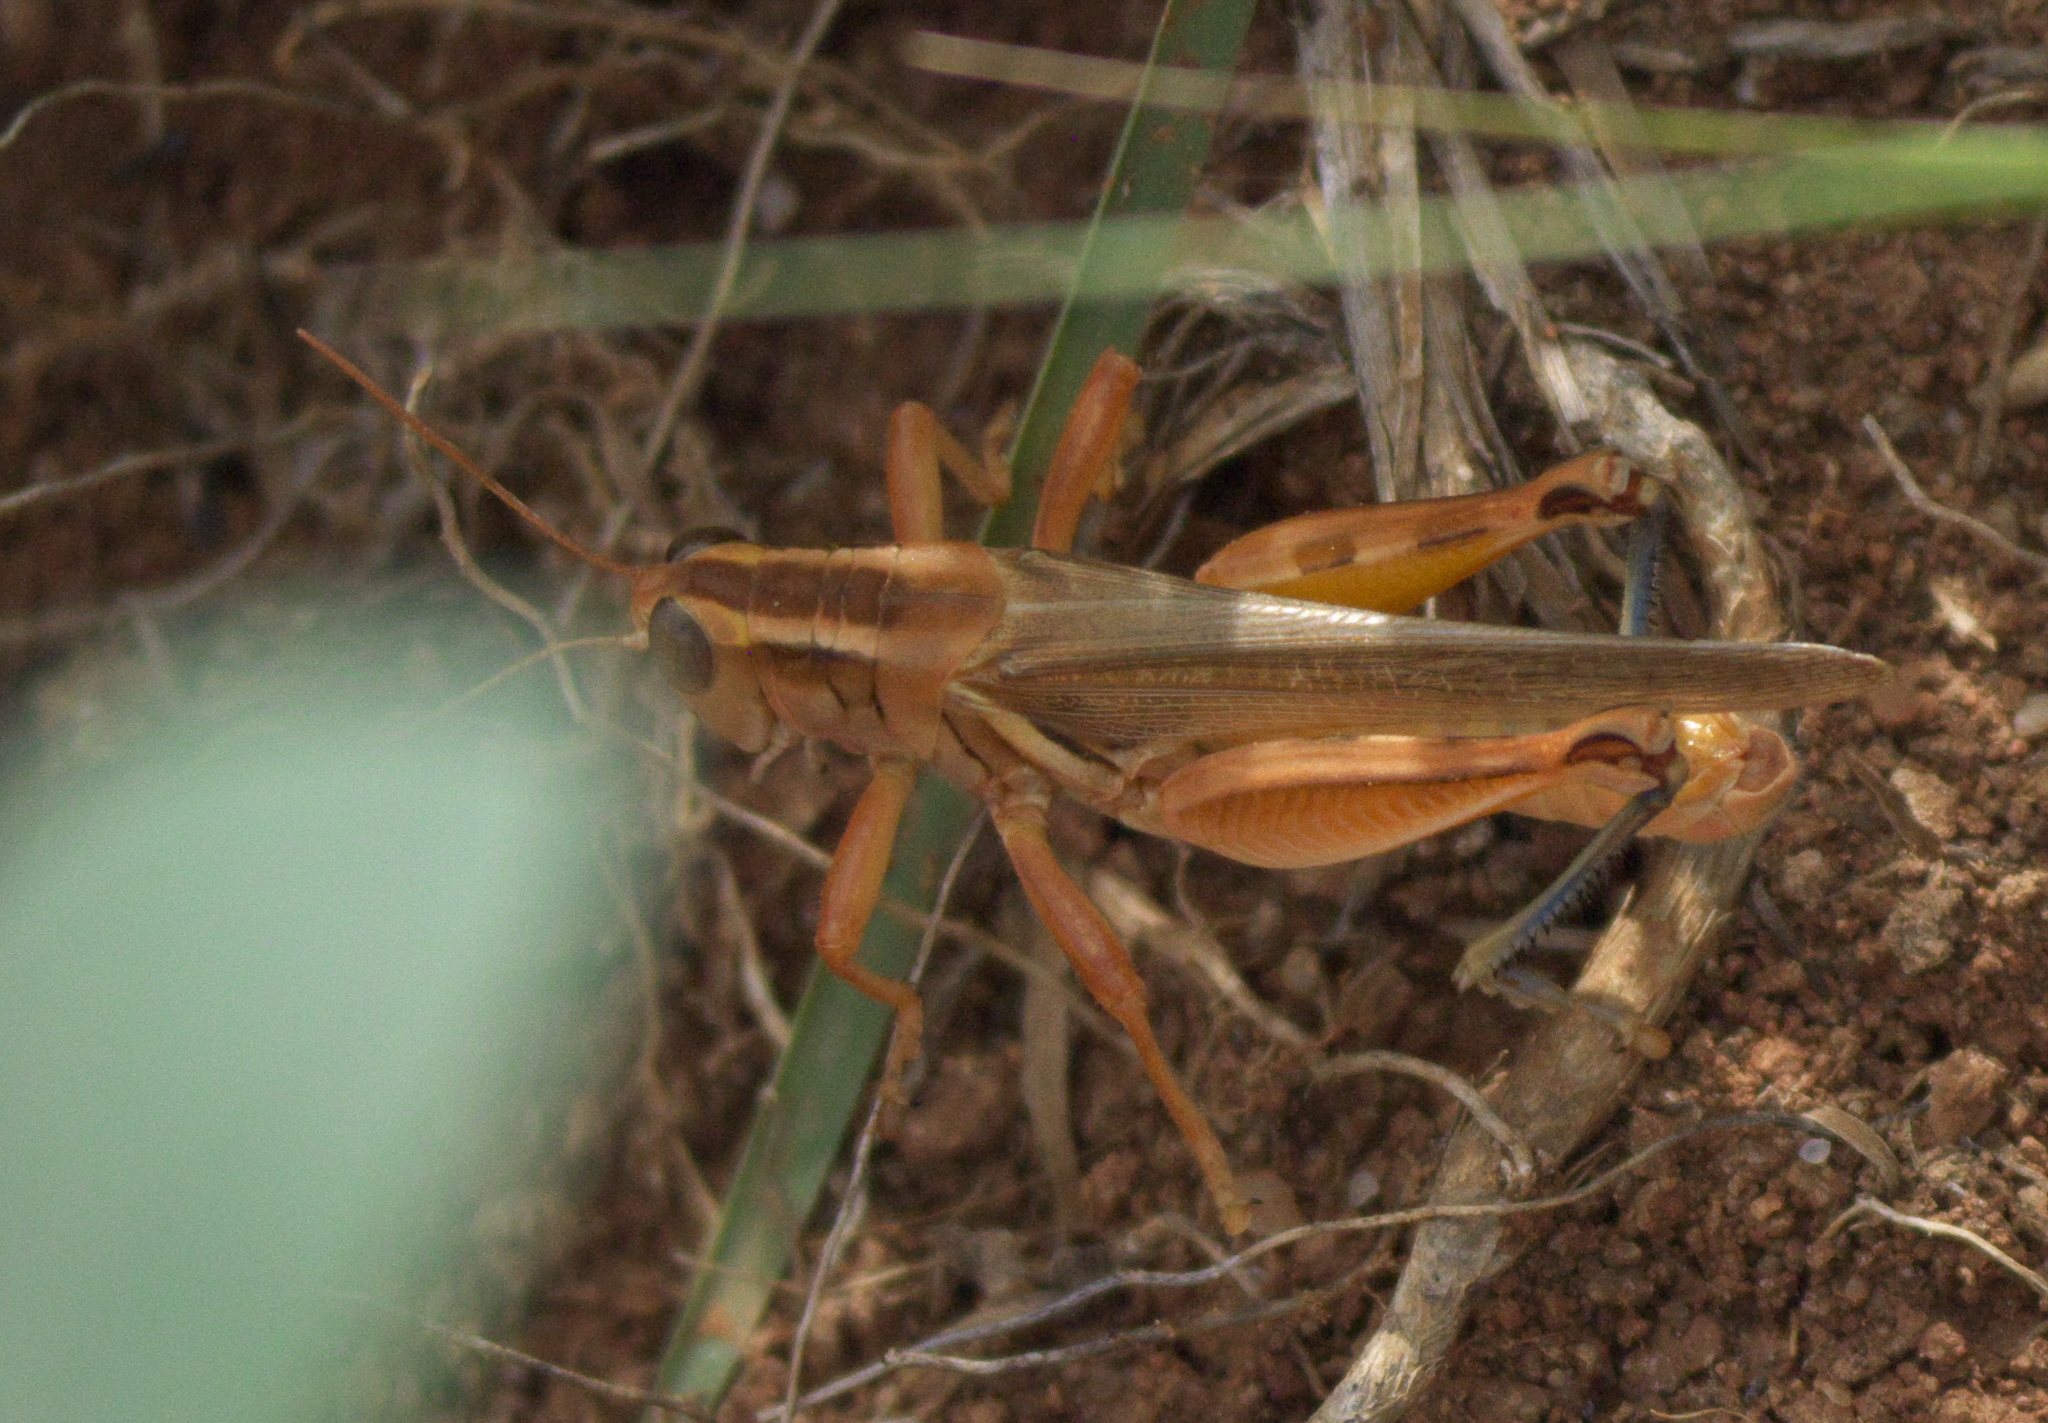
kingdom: Animalia
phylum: Arthropoda
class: Insecta
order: Orthoptera
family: Acrididae
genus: Melanoplus
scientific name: Melanoplus packardii
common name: Packard's grasshopper
